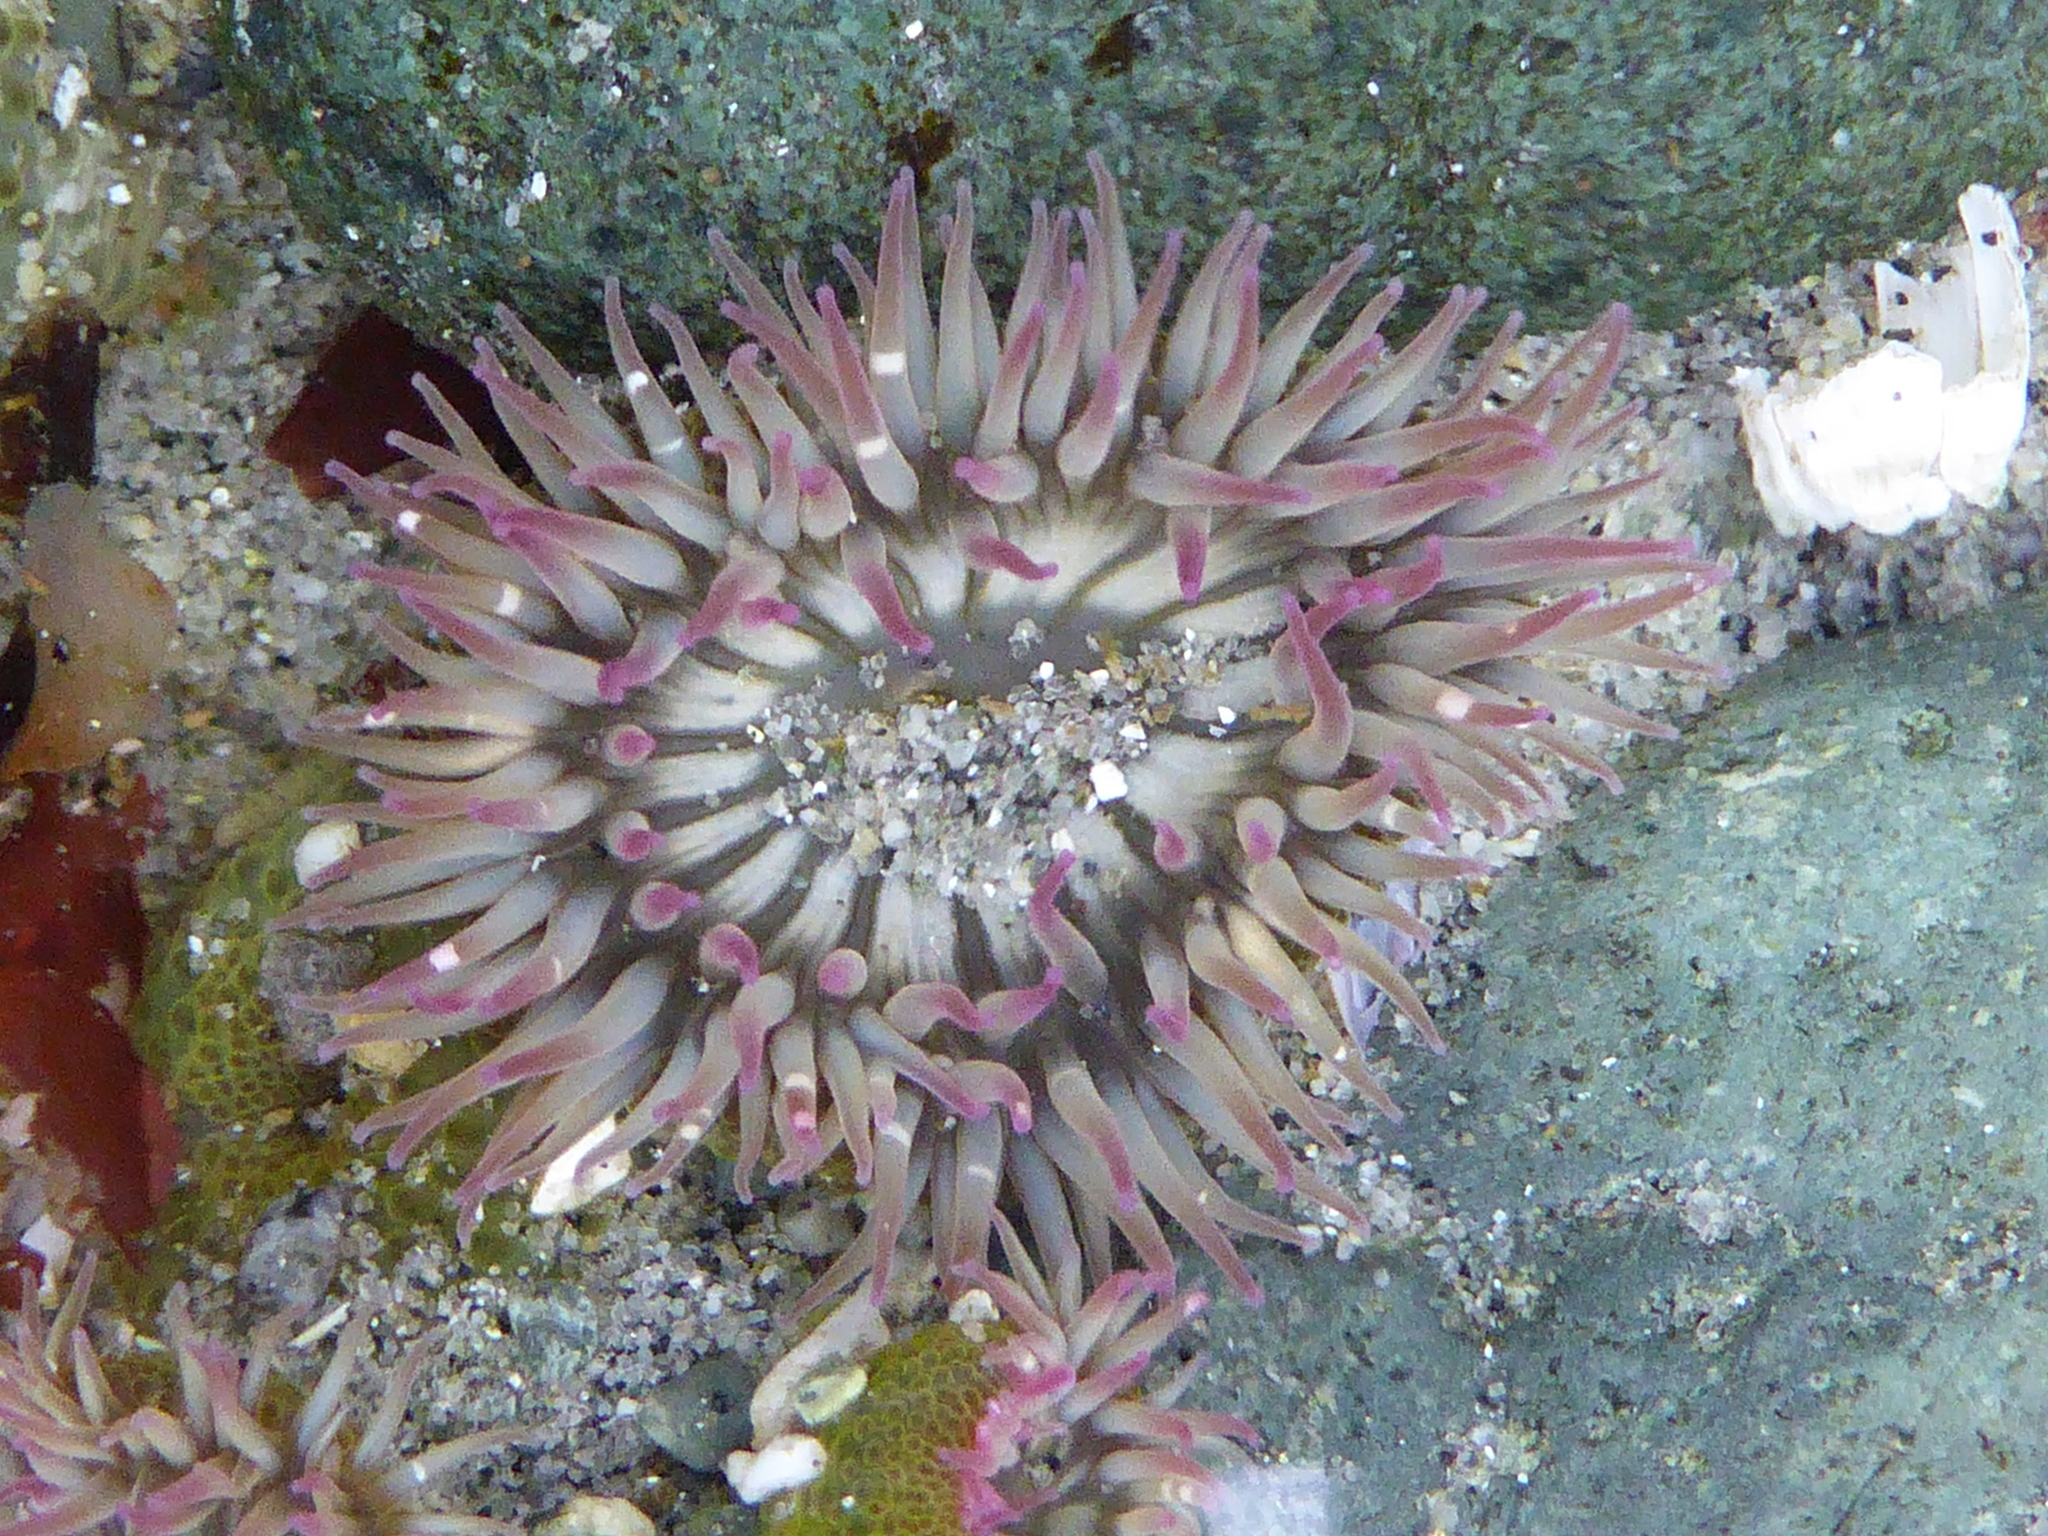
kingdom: Animalia
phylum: Cnidaria
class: Anthozoa
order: Actiniaria
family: Actiniidae
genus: Anthopleura
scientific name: Anthopleura elegantissima
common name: Clonal anemone
